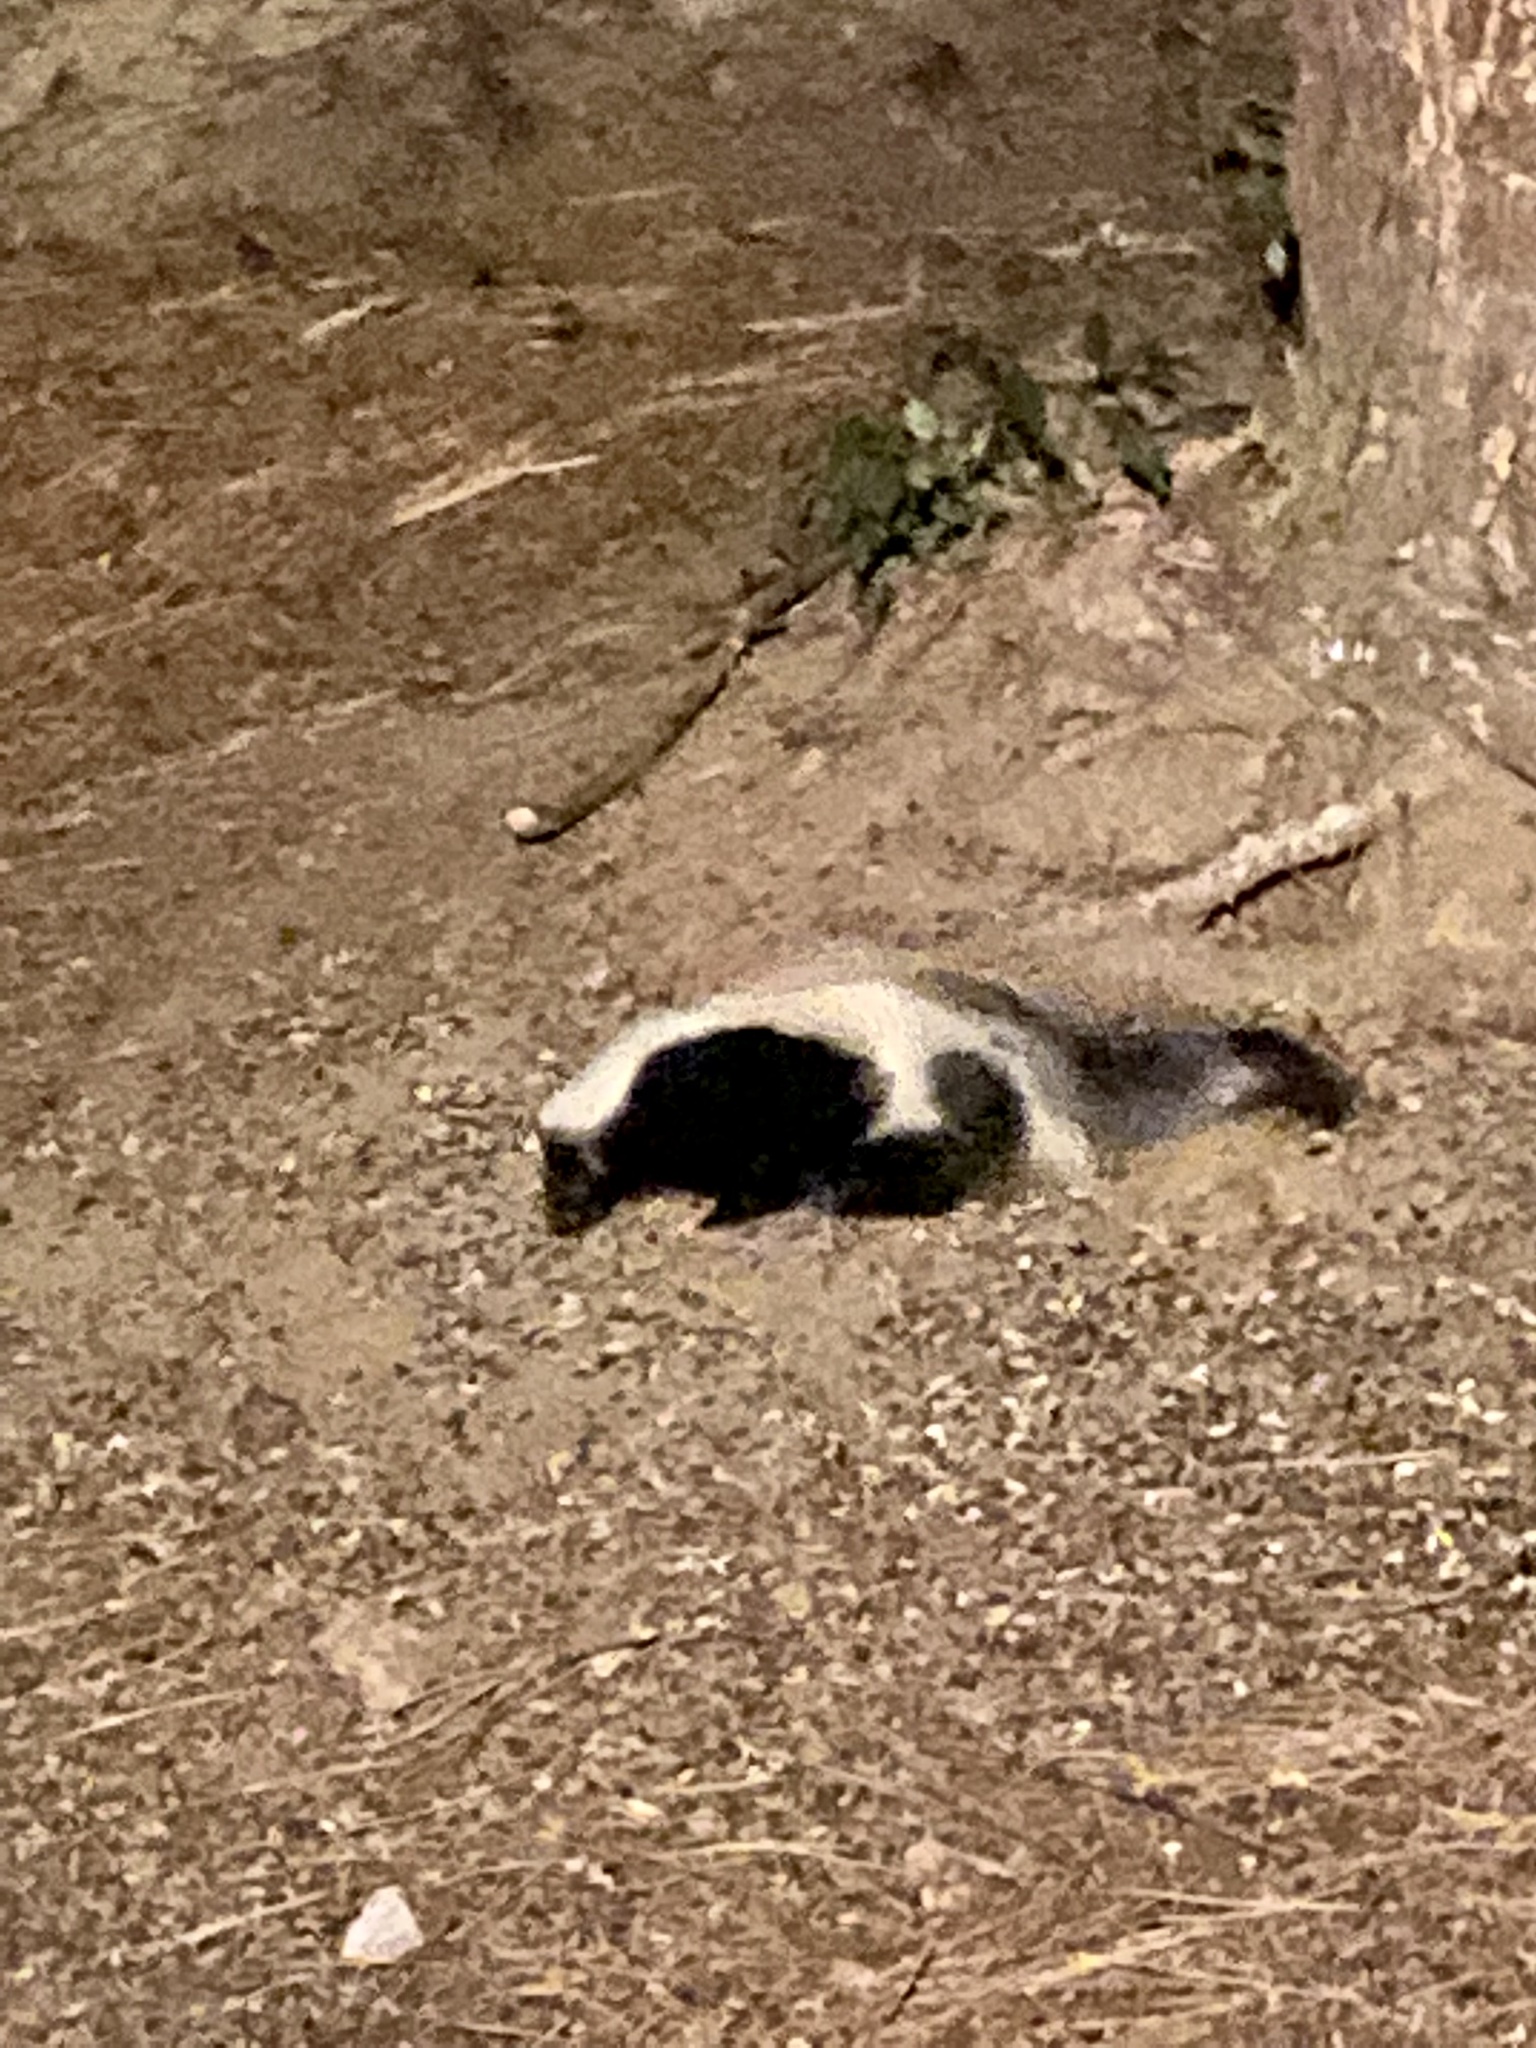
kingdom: Animalia
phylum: Chordata
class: Mammalia
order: Carnivora
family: Mephitidae
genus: Mephitis
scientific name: Mephitis mephitis
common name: Striped skunk
